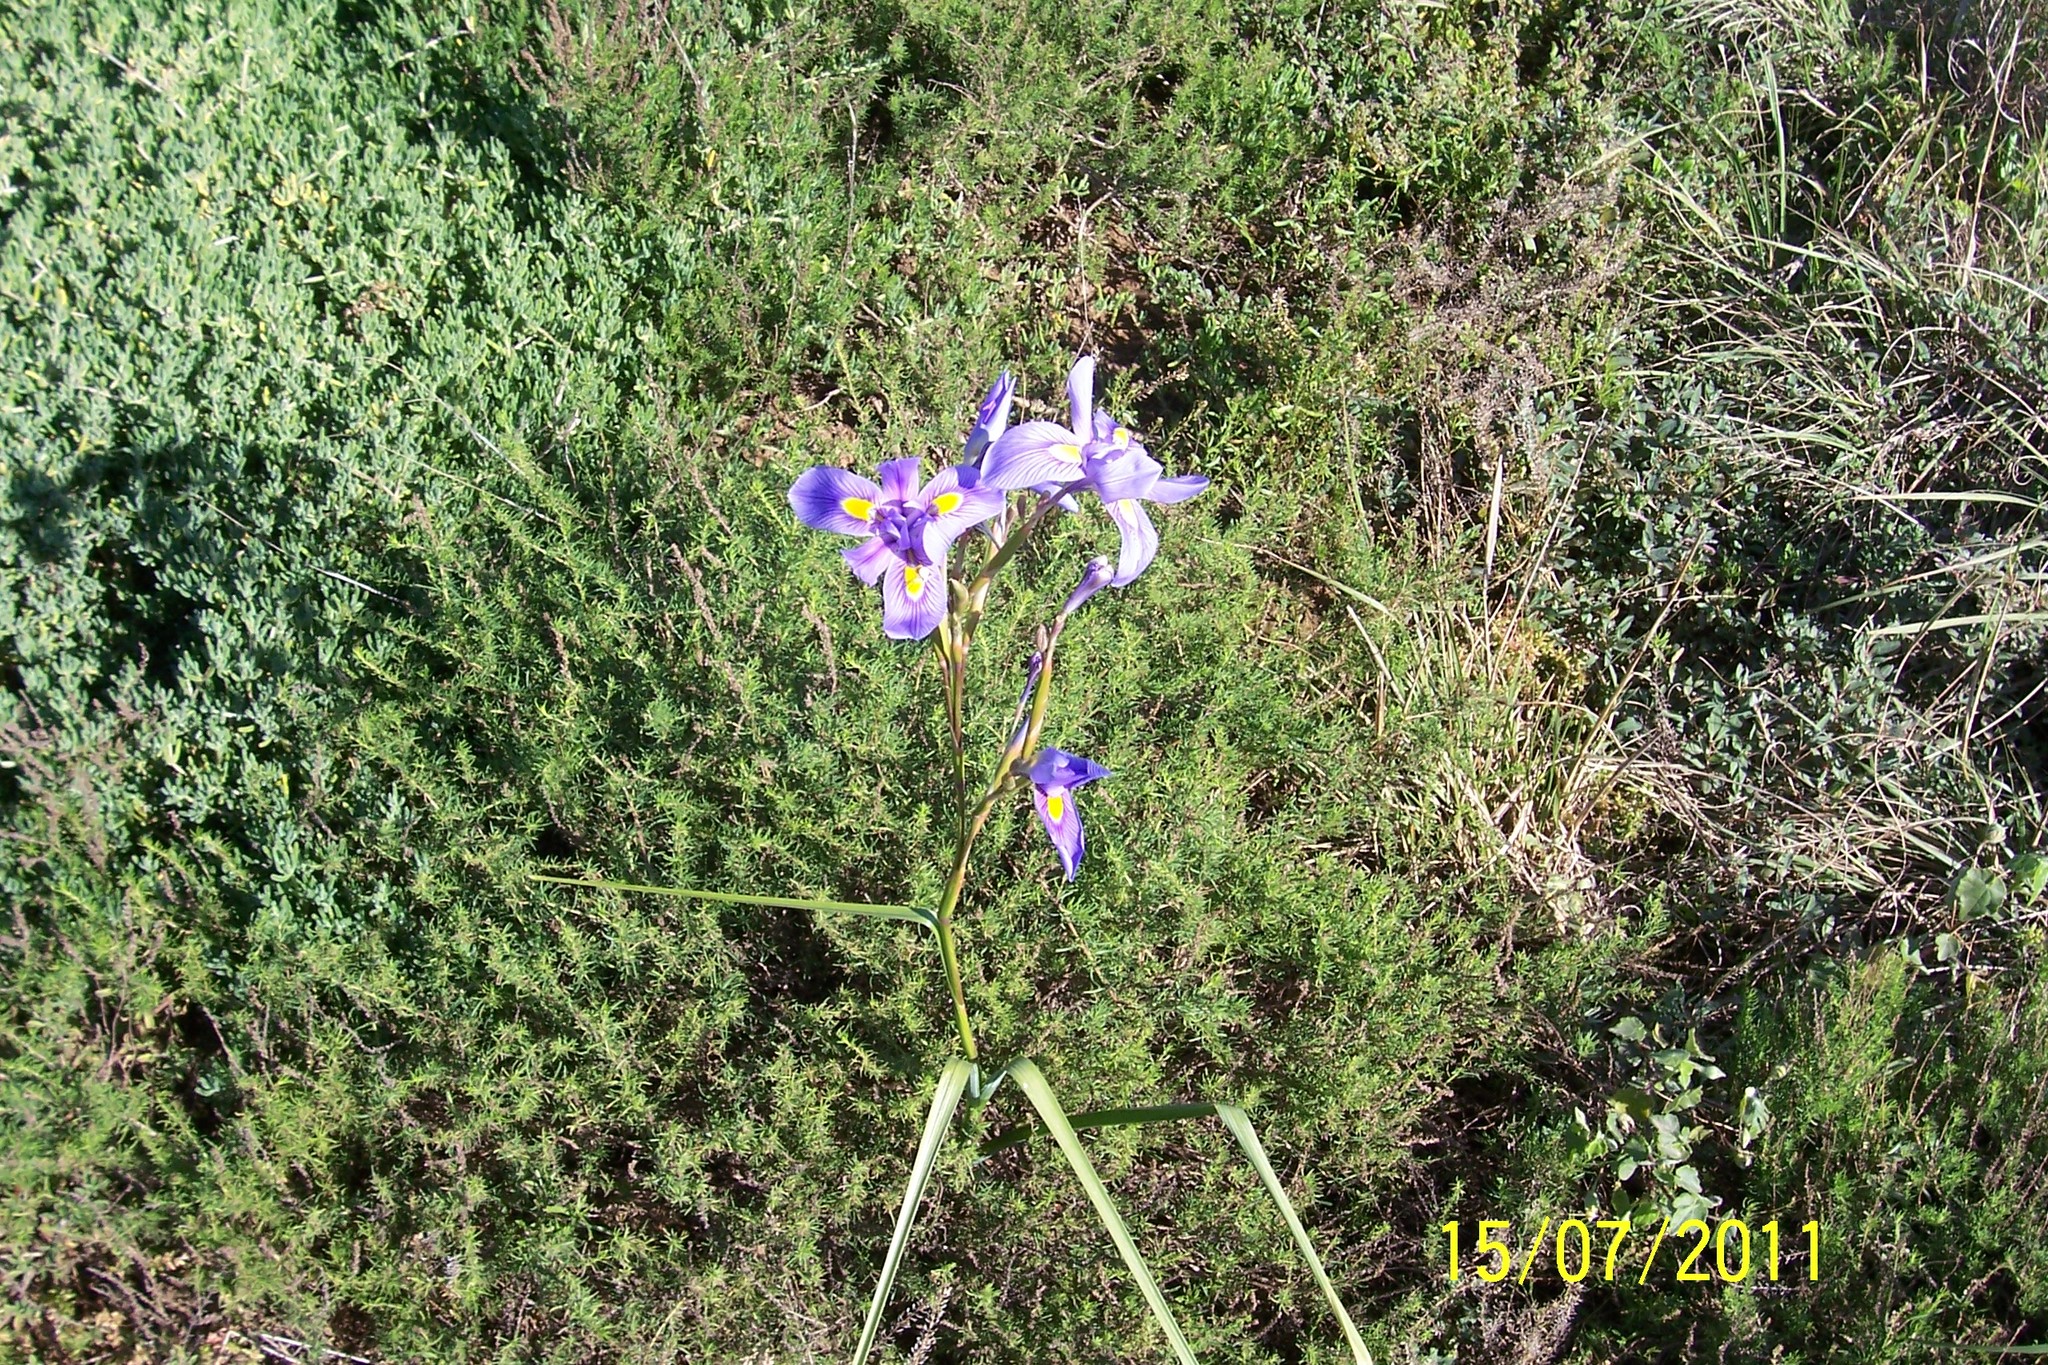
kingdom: Plantae
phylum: Tracheophyta
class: Liliopsida
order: Asparagales
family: Iridaceae
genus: Moraea
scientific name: Moraea polystachya
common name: Blue-tulip
